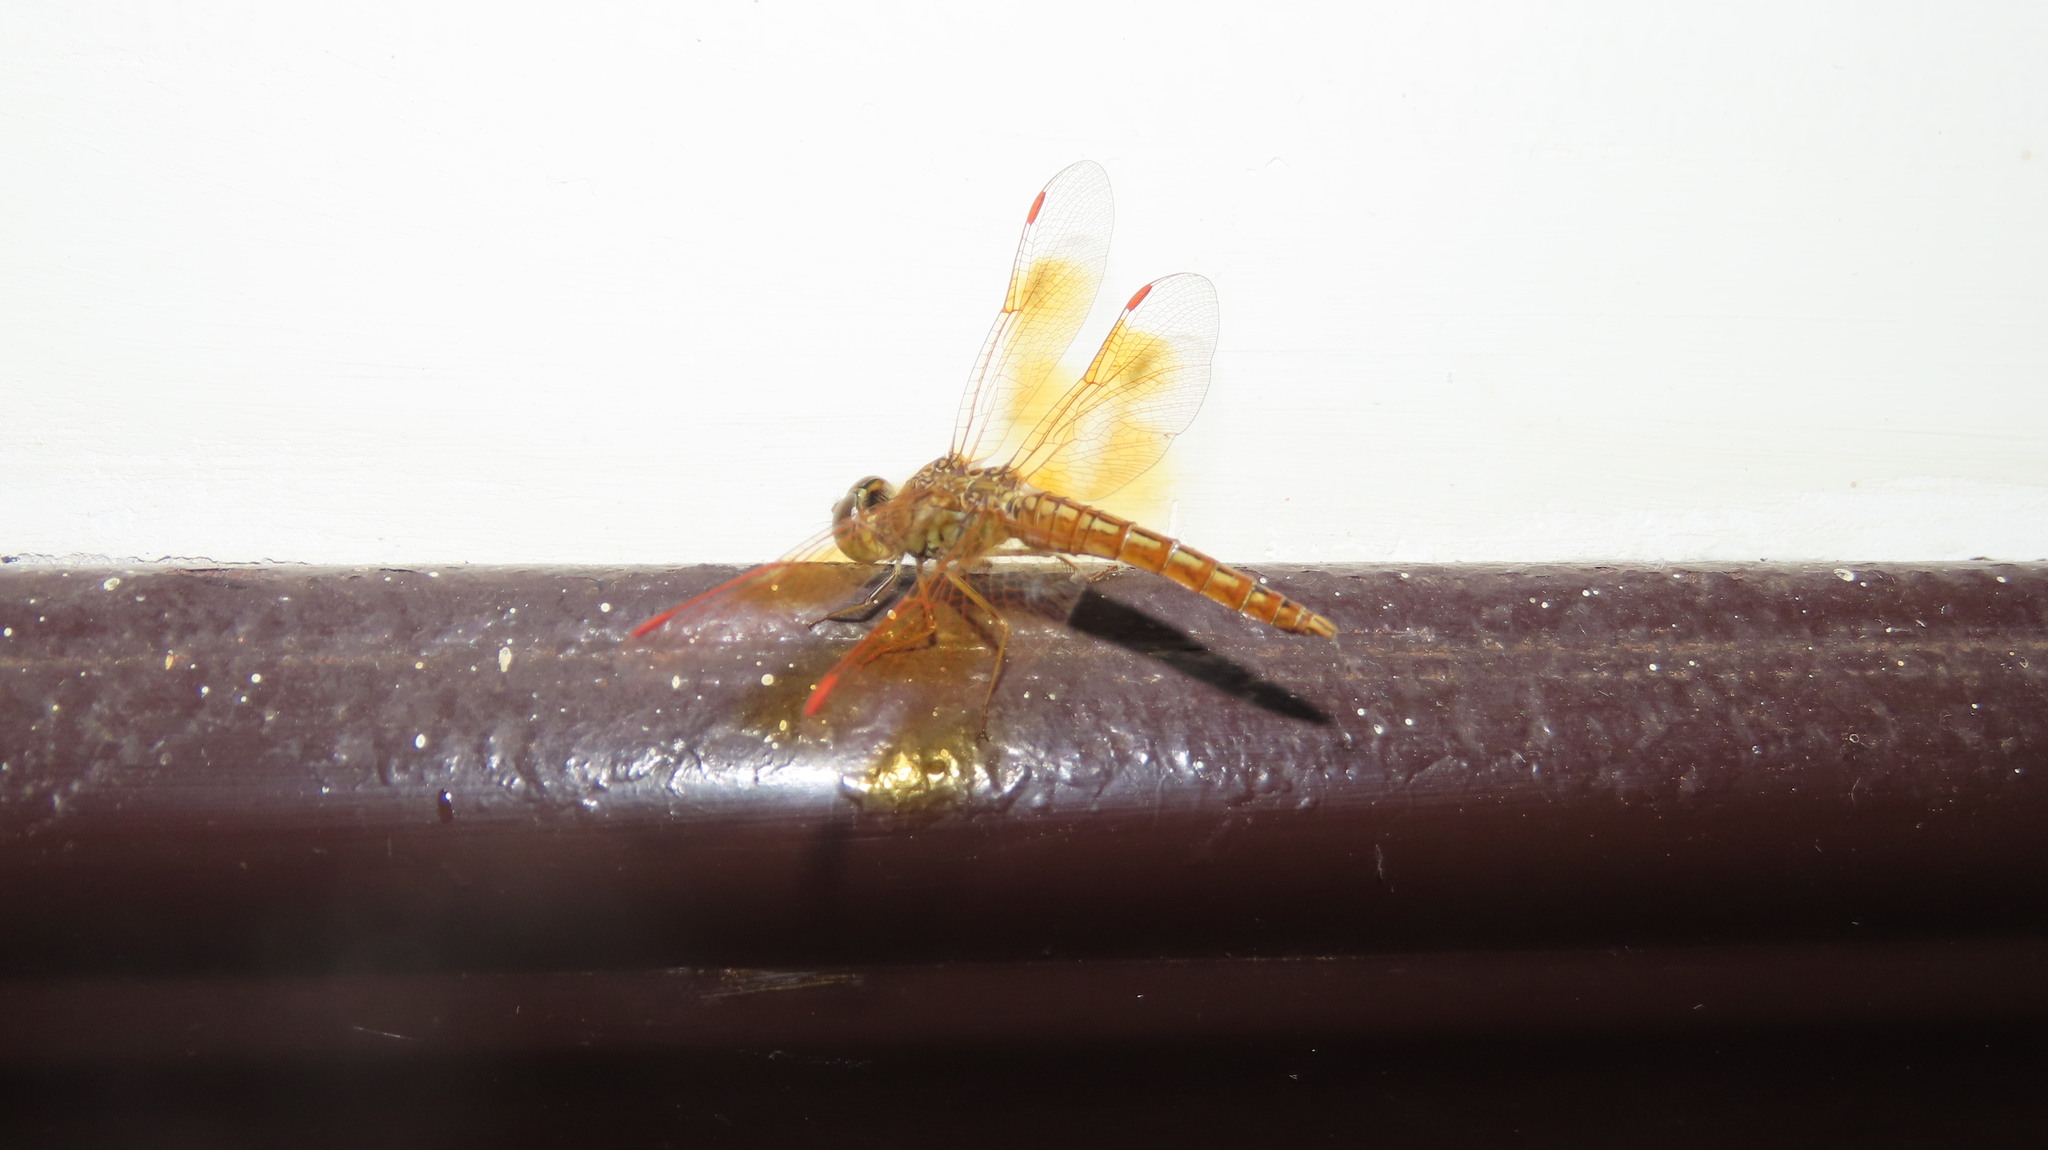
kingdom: Animalia
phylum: Arthropoda
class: Insecta
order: Odonata
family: Libellulidae
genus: Brachythemis
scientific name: Brachythemis contaminata
